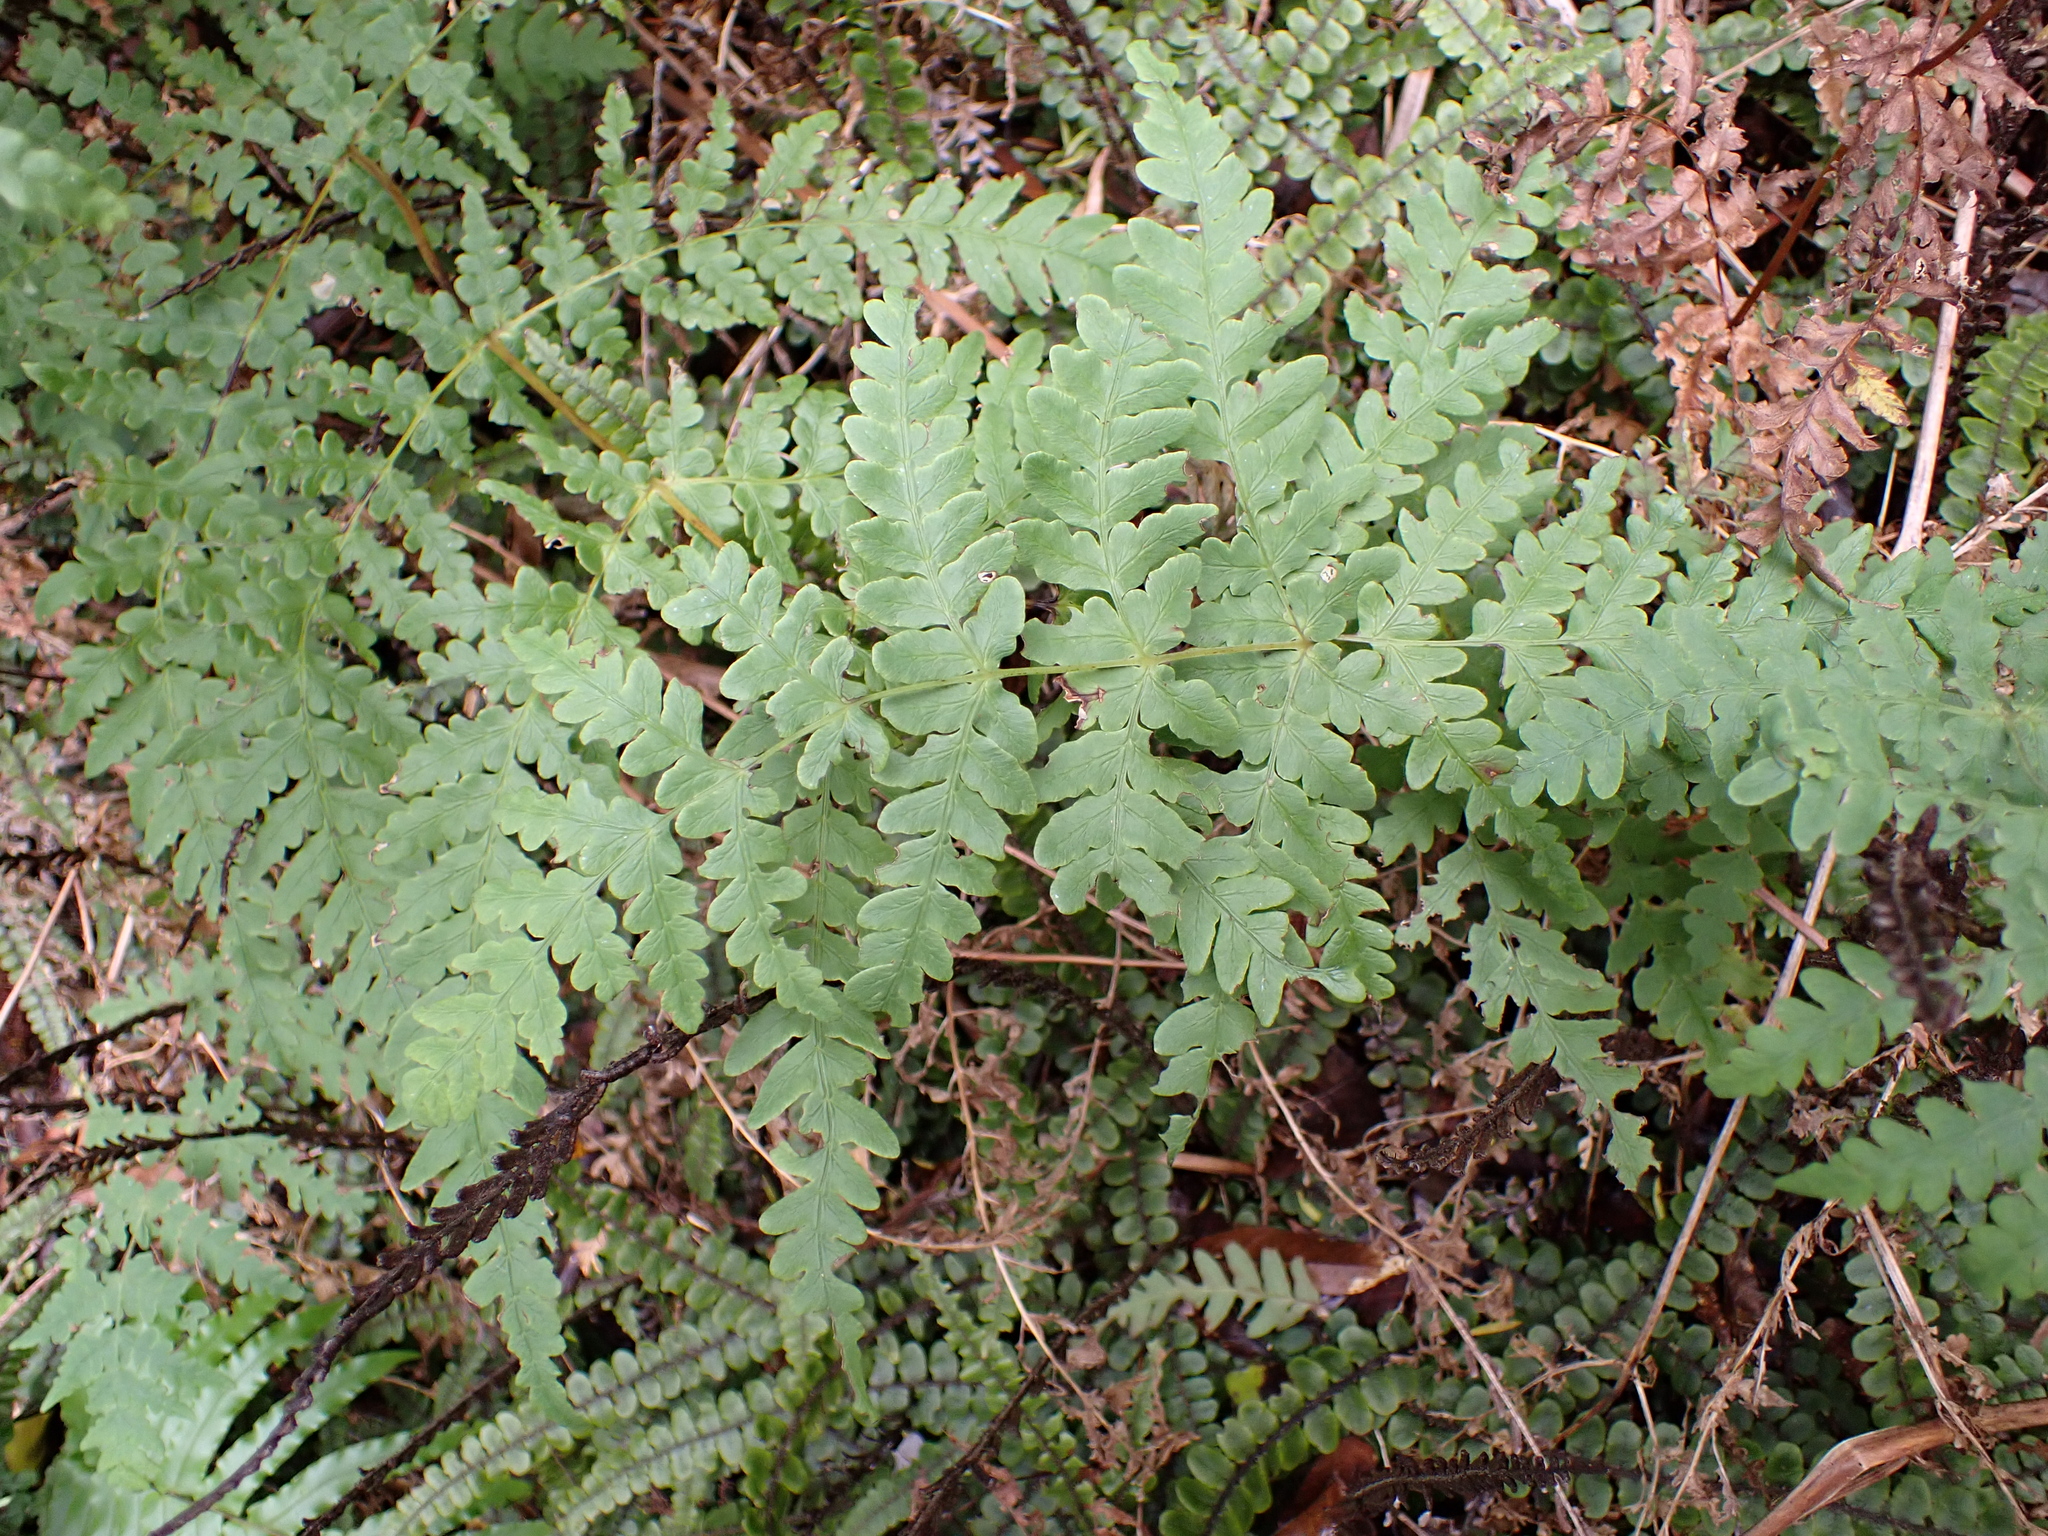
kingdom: Plantae
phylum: Tracheophyta
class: Polypodiopsida
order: Polypodiales
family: Dennstaedtiaceae
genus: Histiopteris
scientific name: Histiopteris incisa
